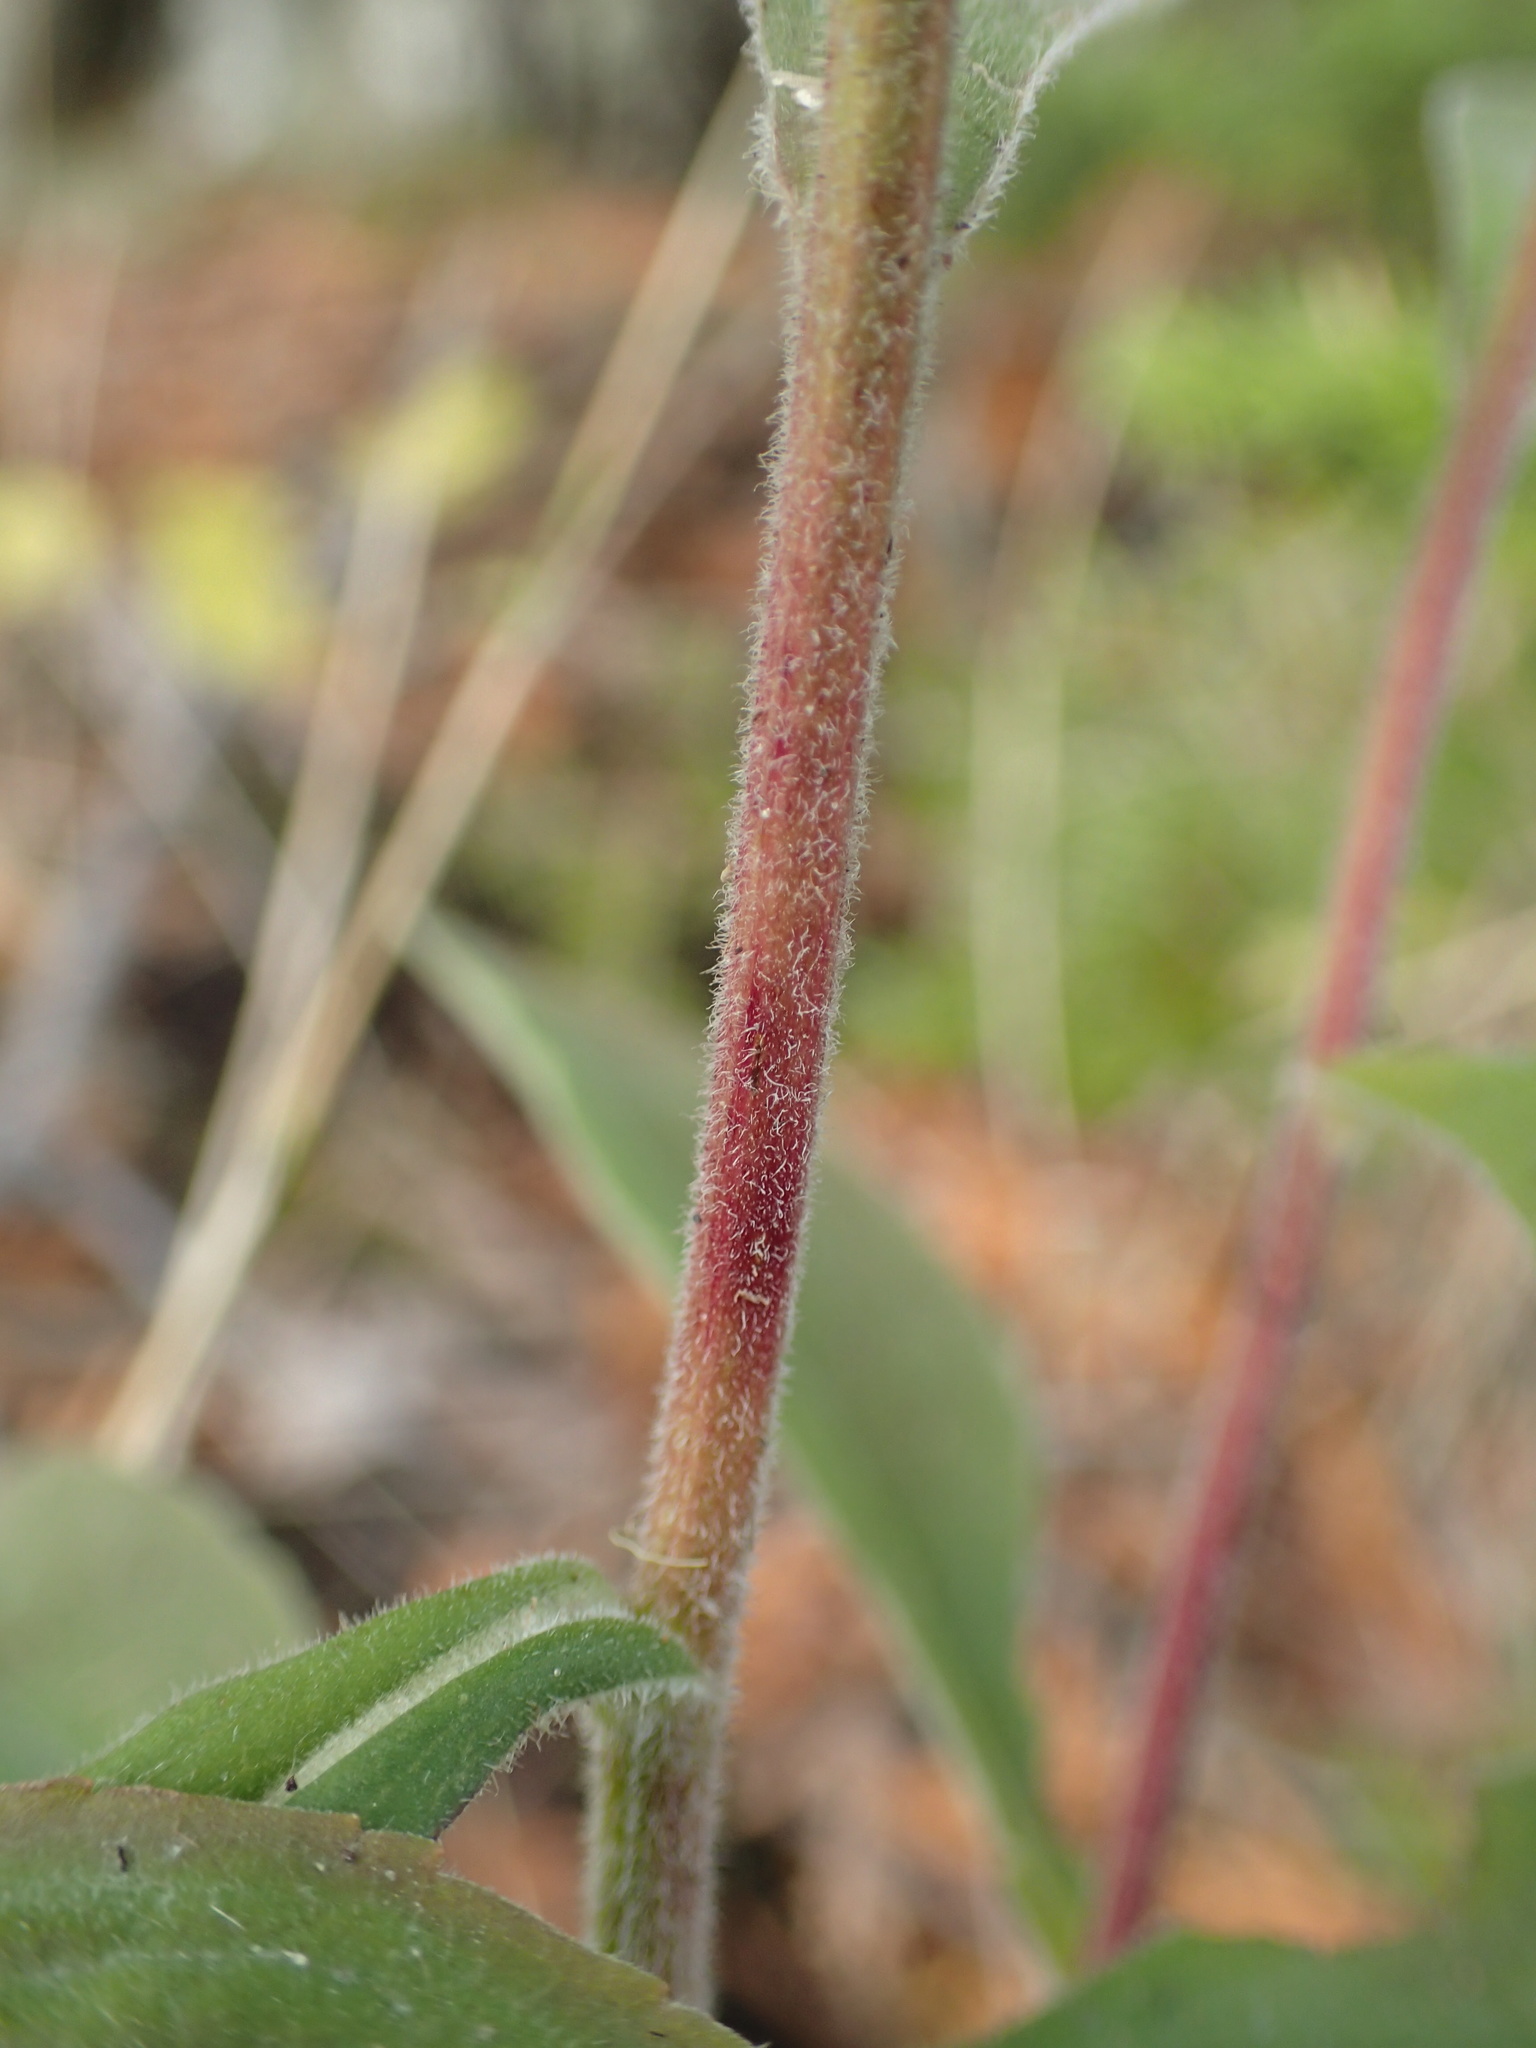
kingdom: Plantae
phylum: Tracheophyta
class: Magnoliopsida
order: Asterales
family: Asteraceae
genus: Solidago
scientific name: Solidago nemoralis
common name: Grey goldenrod
